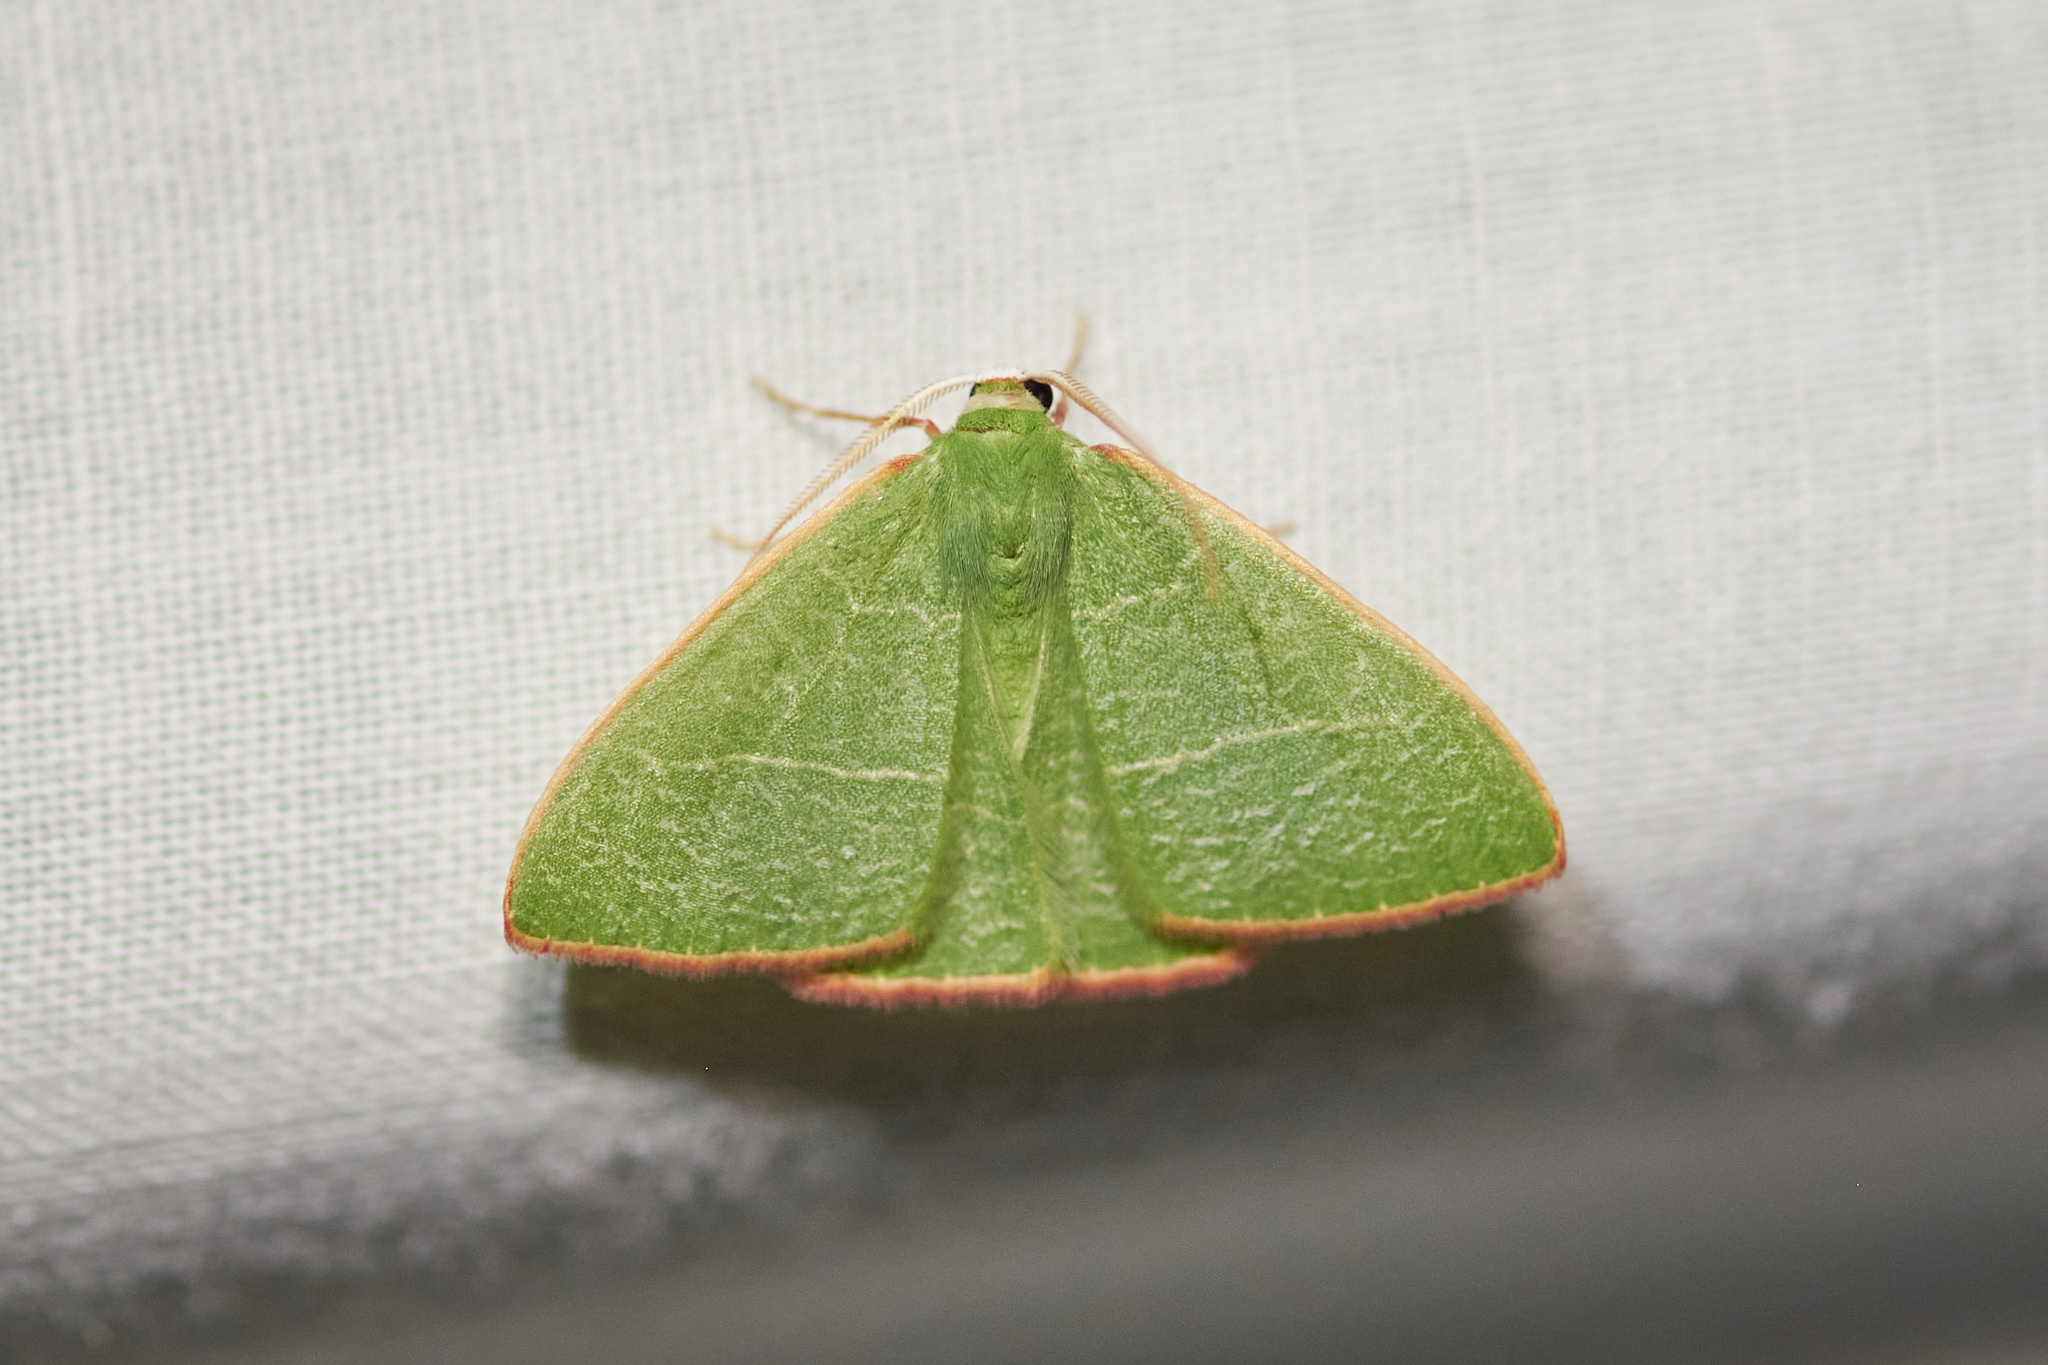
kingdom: Animalia
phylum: Arthropoda
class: Insecta
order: Lepidoptera
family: Geometridae
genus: Nemoria
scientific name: Nemoria leptalea
